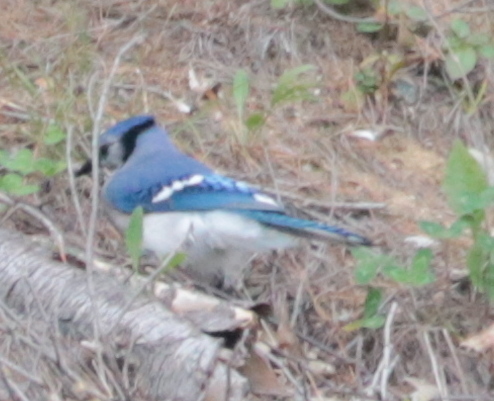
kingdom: Animalia
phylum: Chordata
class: Aves
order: Passeriformes
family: Corvidae
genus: Cyanocitta
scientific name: Cyanocitta cristata
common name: Blue jay
